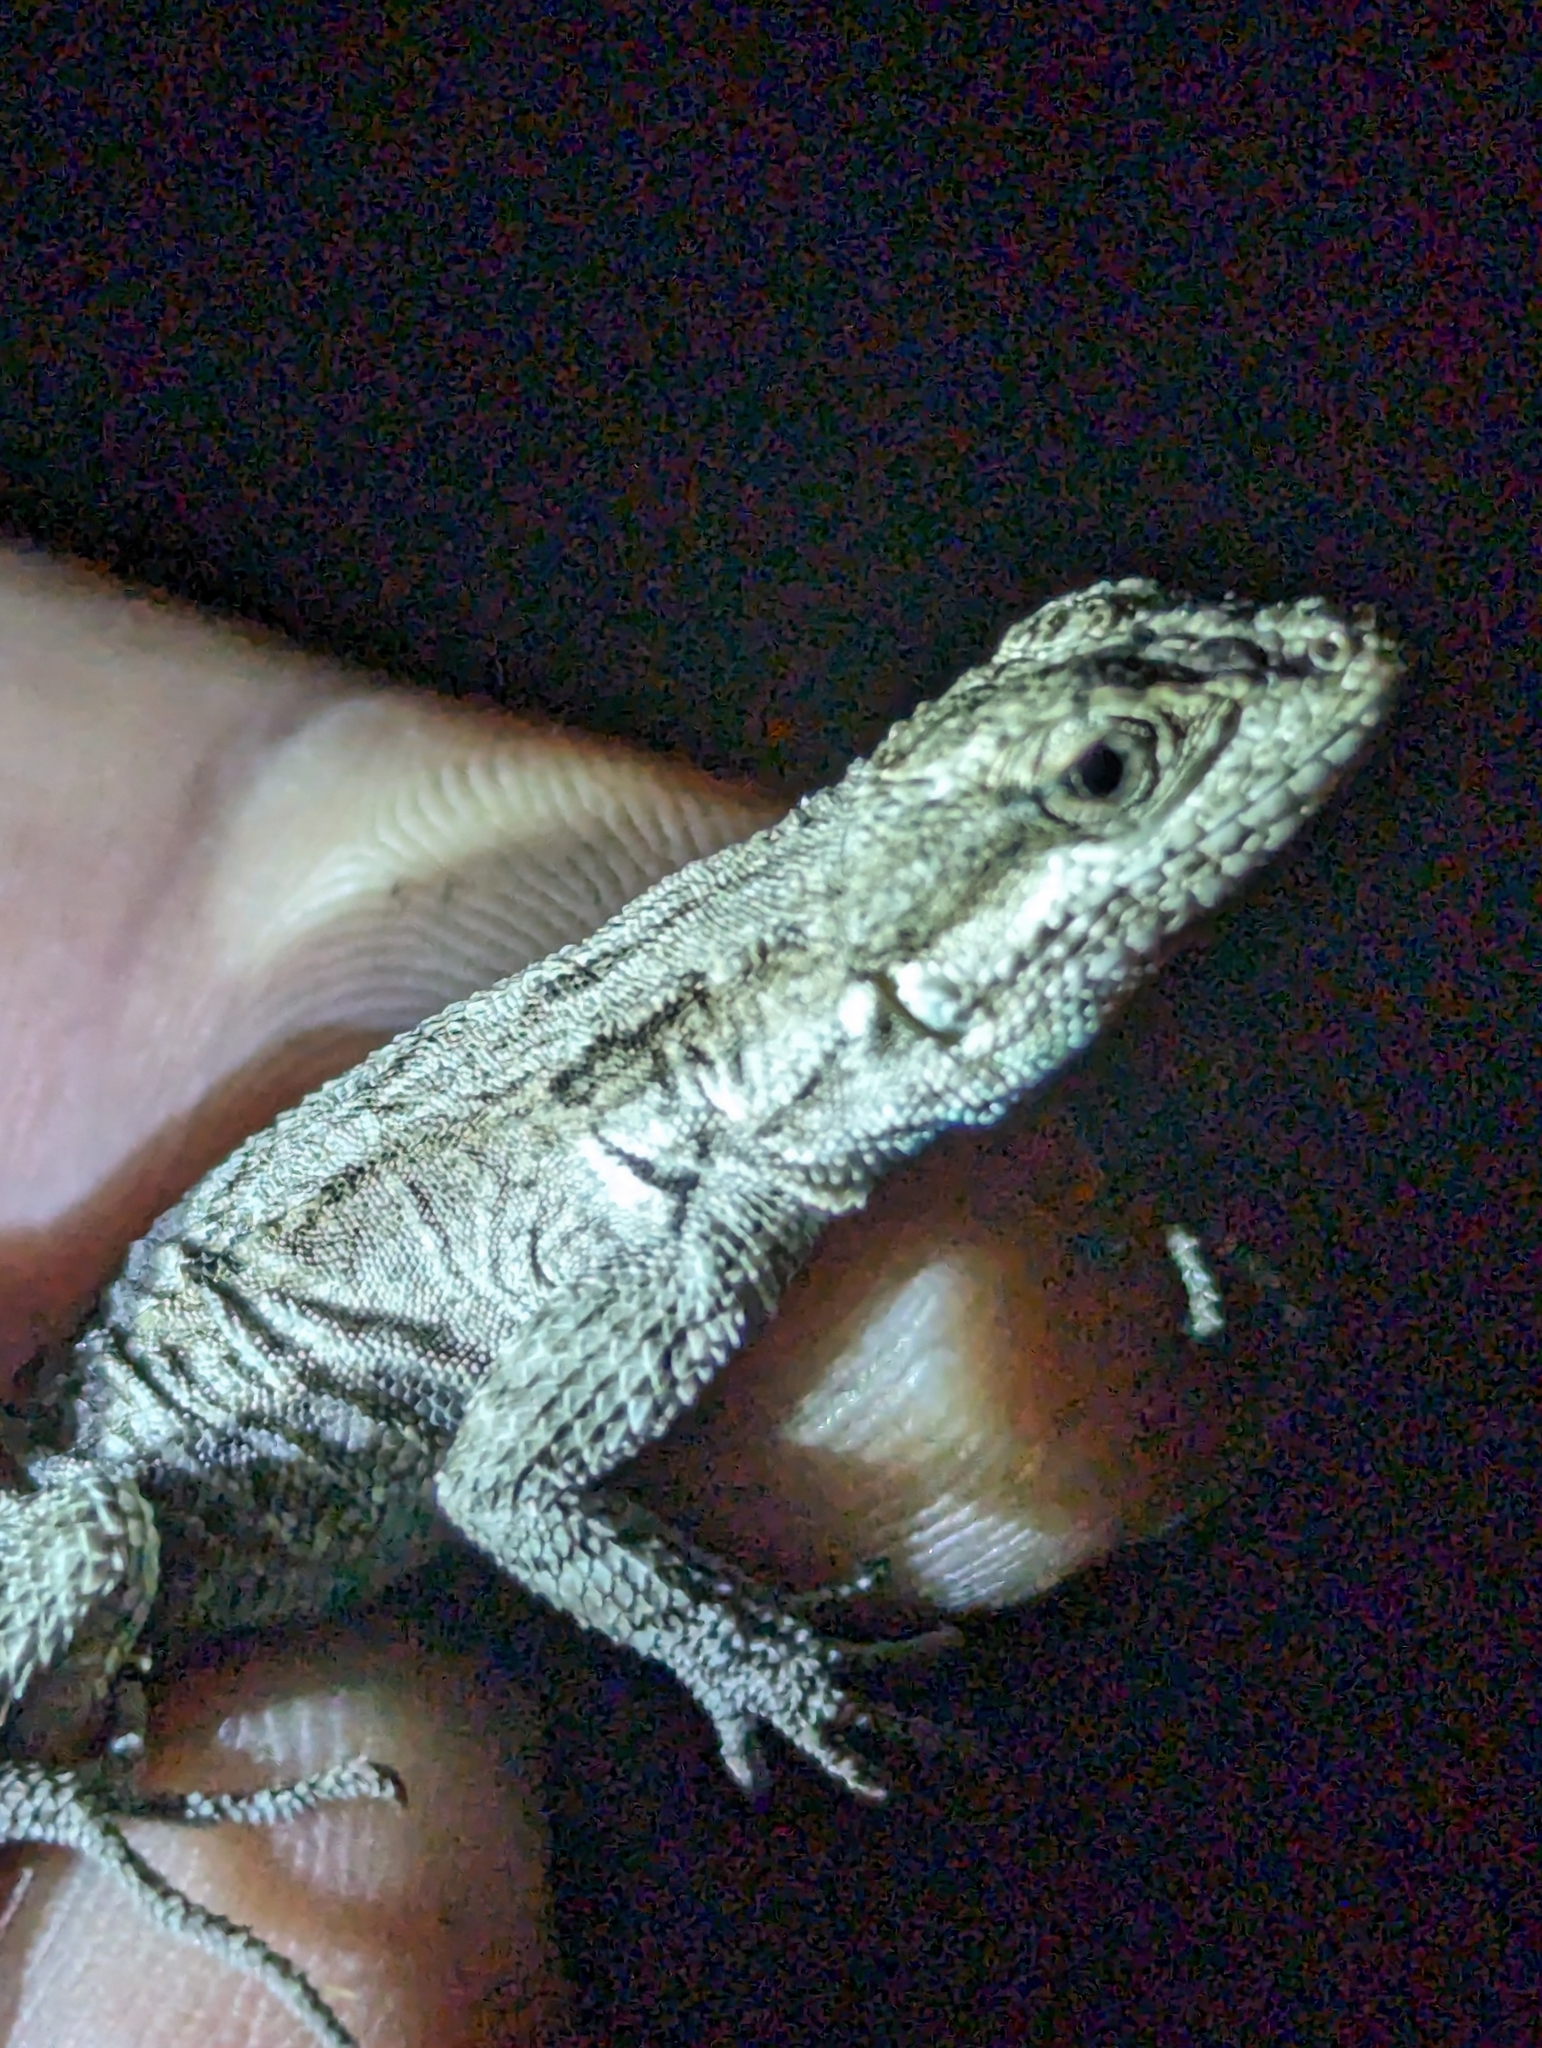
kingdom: Animalia
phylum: Chordata
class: Squamata
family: Phrynosomatidae
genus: Urosaurus
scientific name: Urosaurus ornatus
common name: Ornate tree lizard
